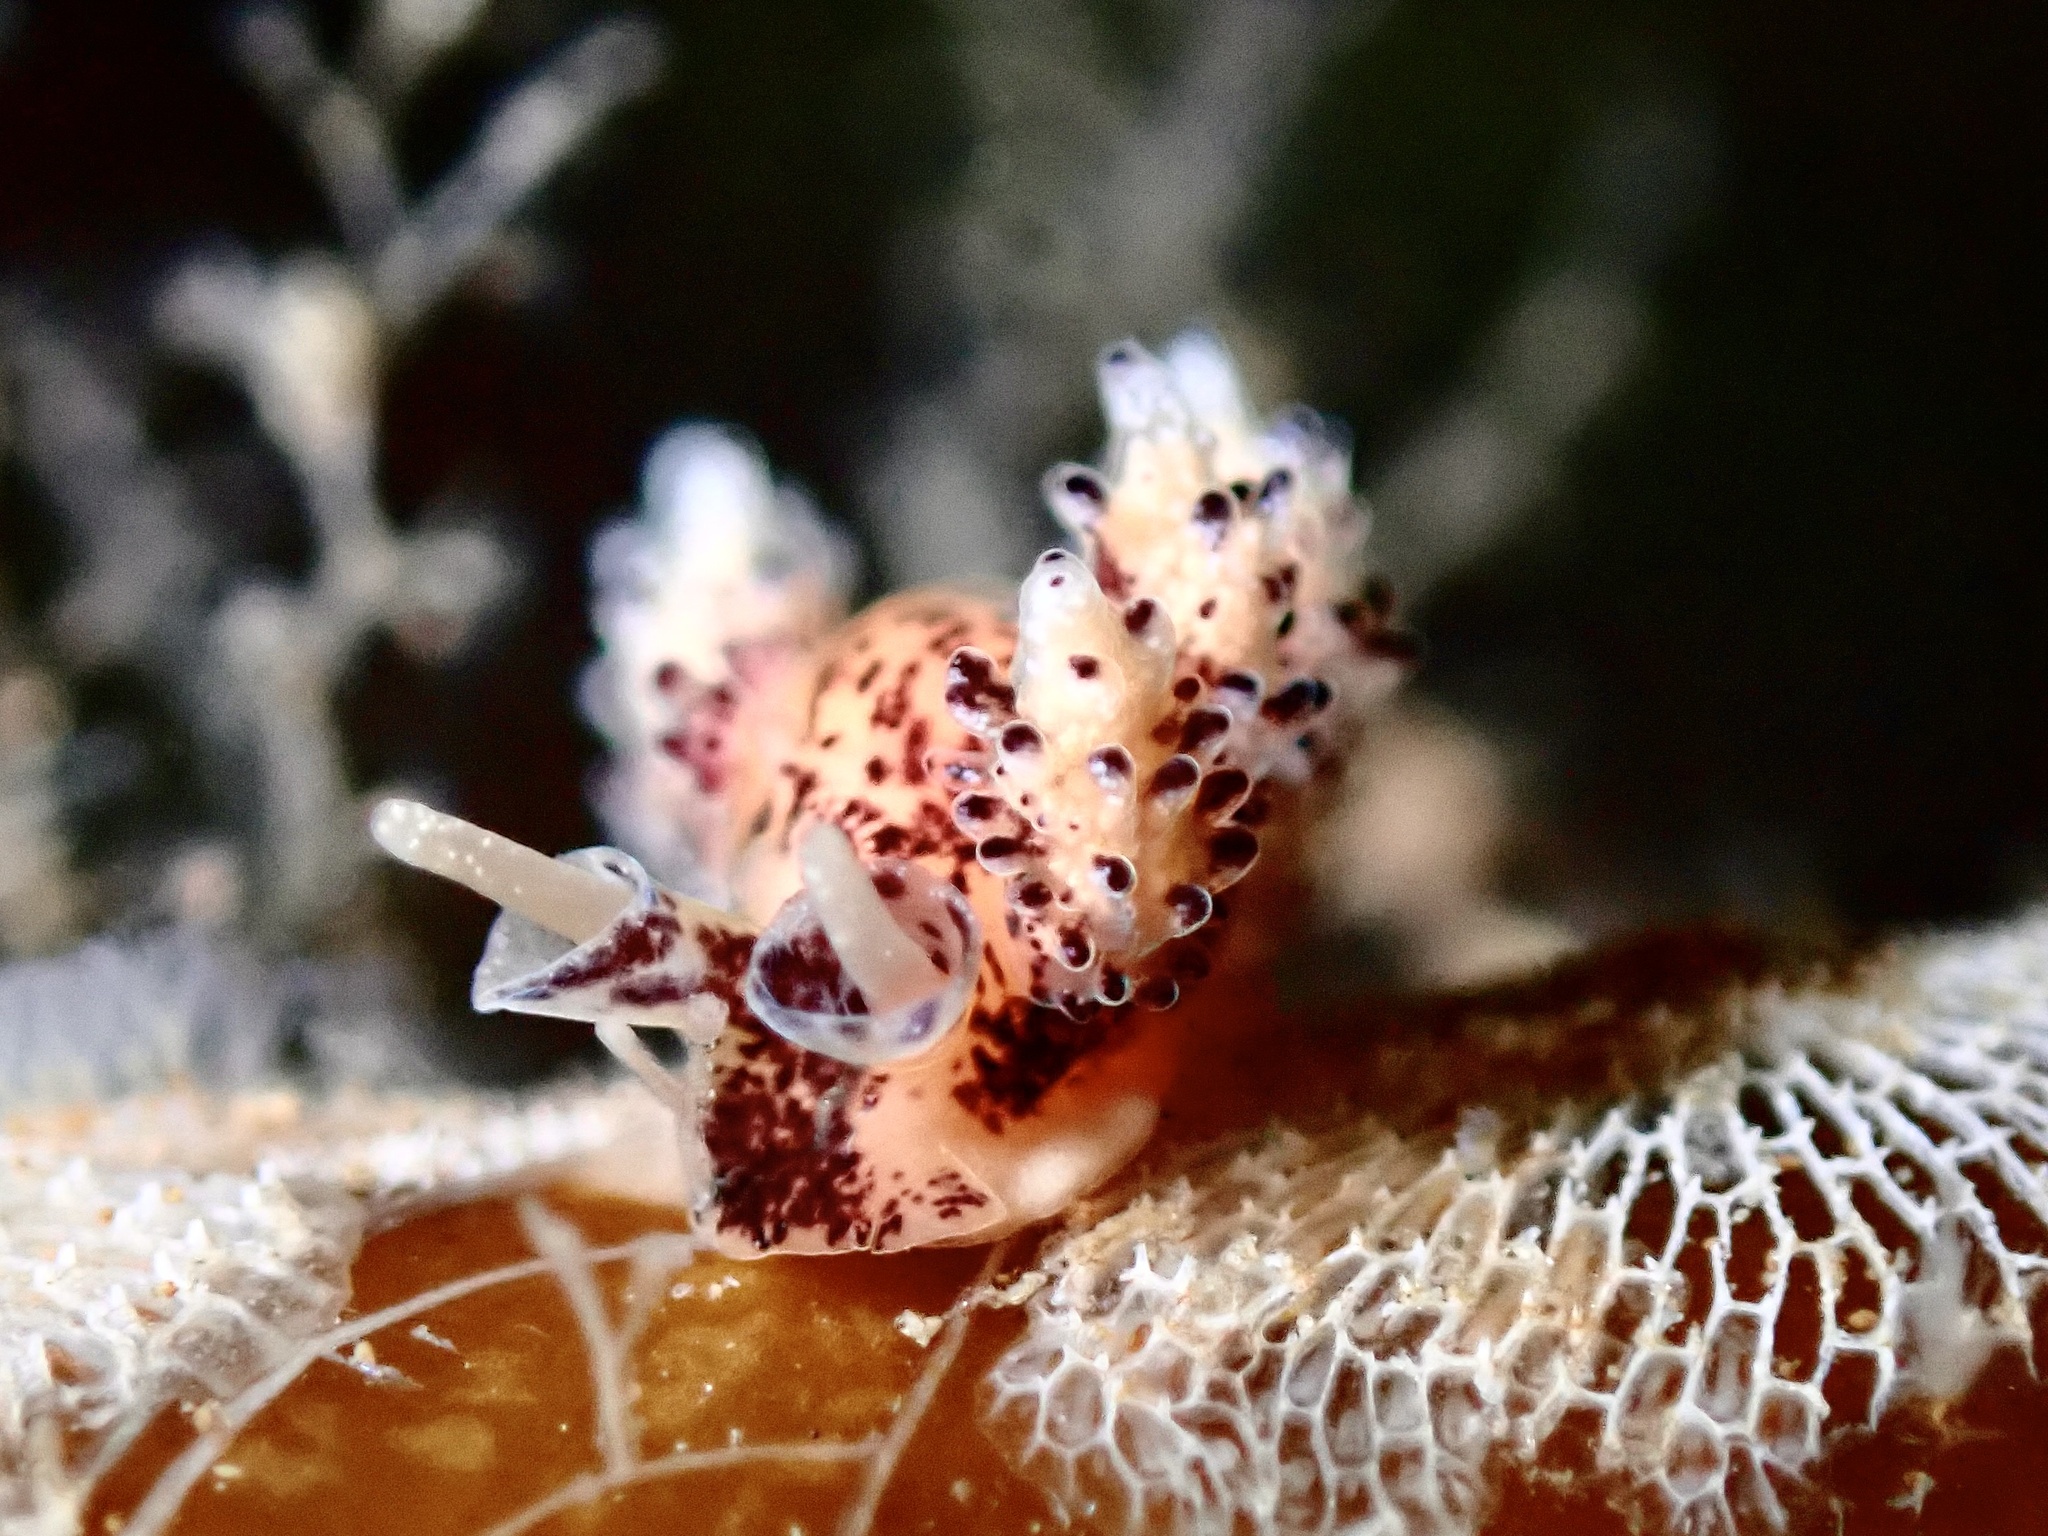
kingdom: Animalia
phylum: Mollusca
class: Gastropoda
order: Nudibranchia
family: Dotidae
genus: Doto
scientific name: Doto coronata
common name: Coronate doto
